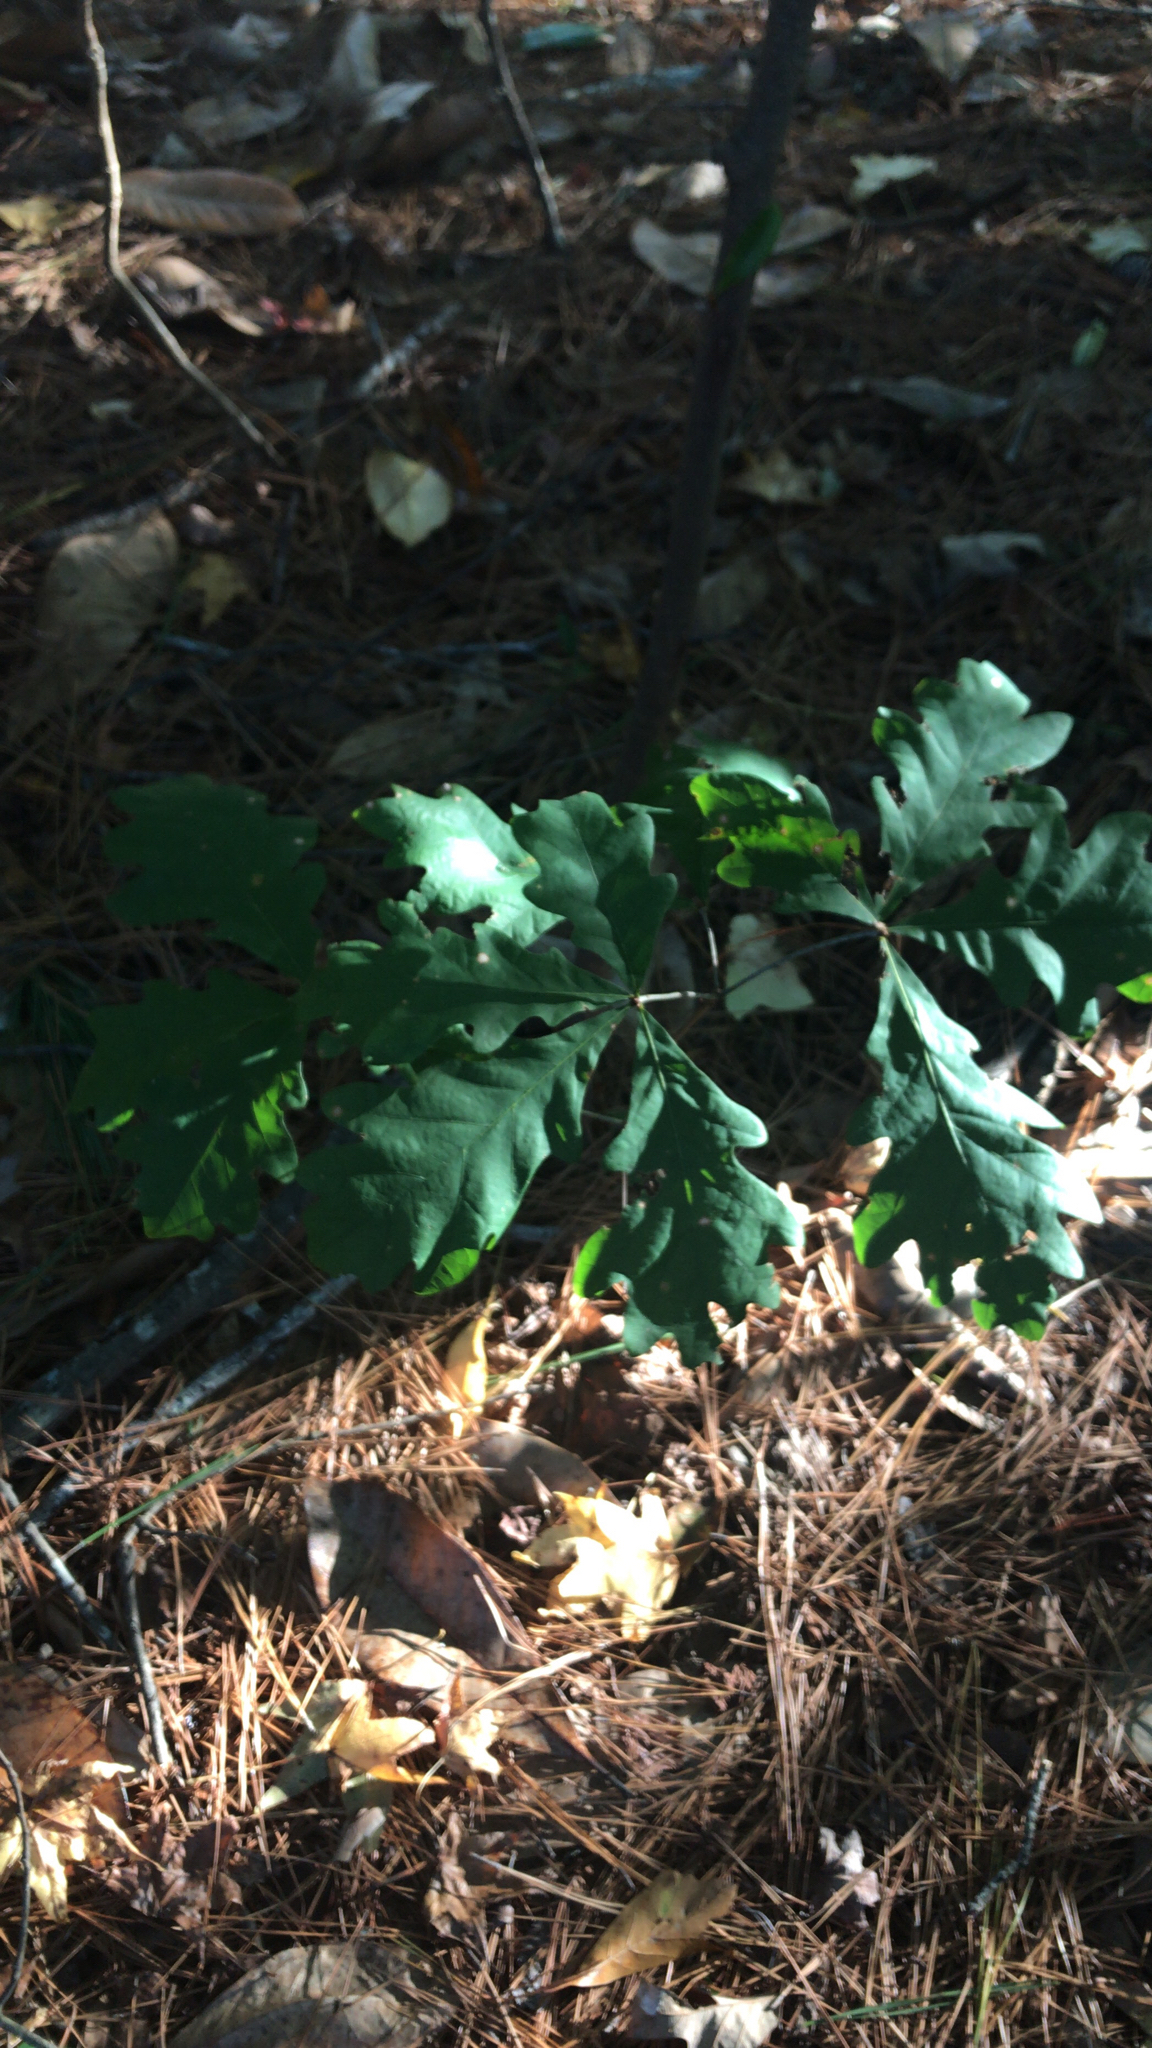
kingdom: Plantae
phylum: Tracheophyta
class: Magnoliopsida
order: Fagales
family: Fagaceae
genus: Quercus
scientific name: Quercus alba
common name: White oak
